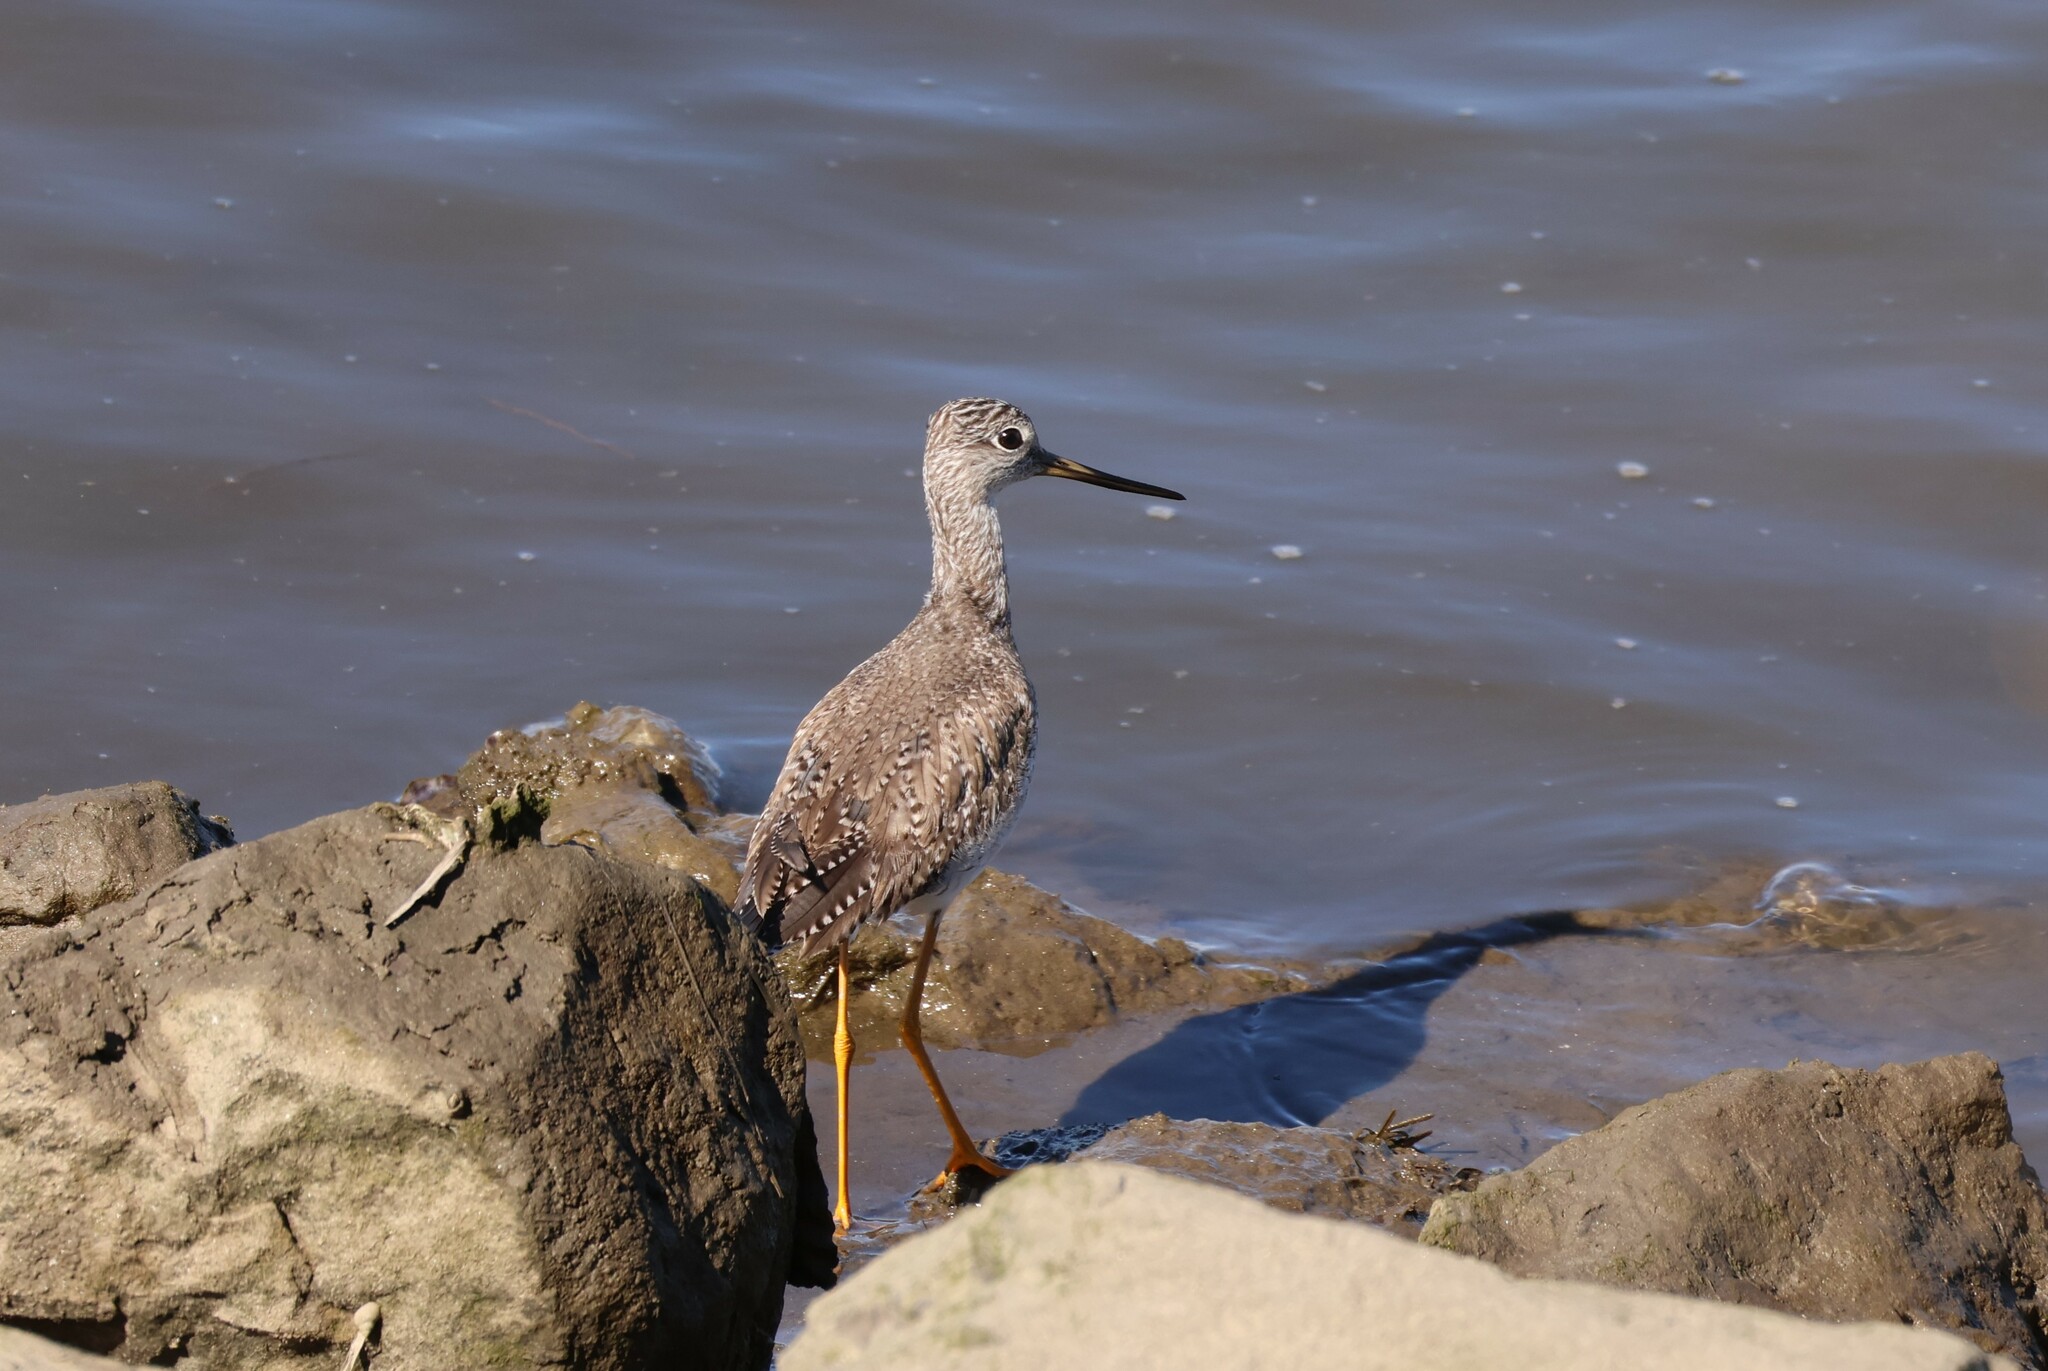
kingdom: Animalia
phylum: Chordata
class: Aves
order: Charadriiformes
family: Scolopacidae
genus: Tringa
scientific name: Tringa melanoleuca
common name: Greater yellowlegs
